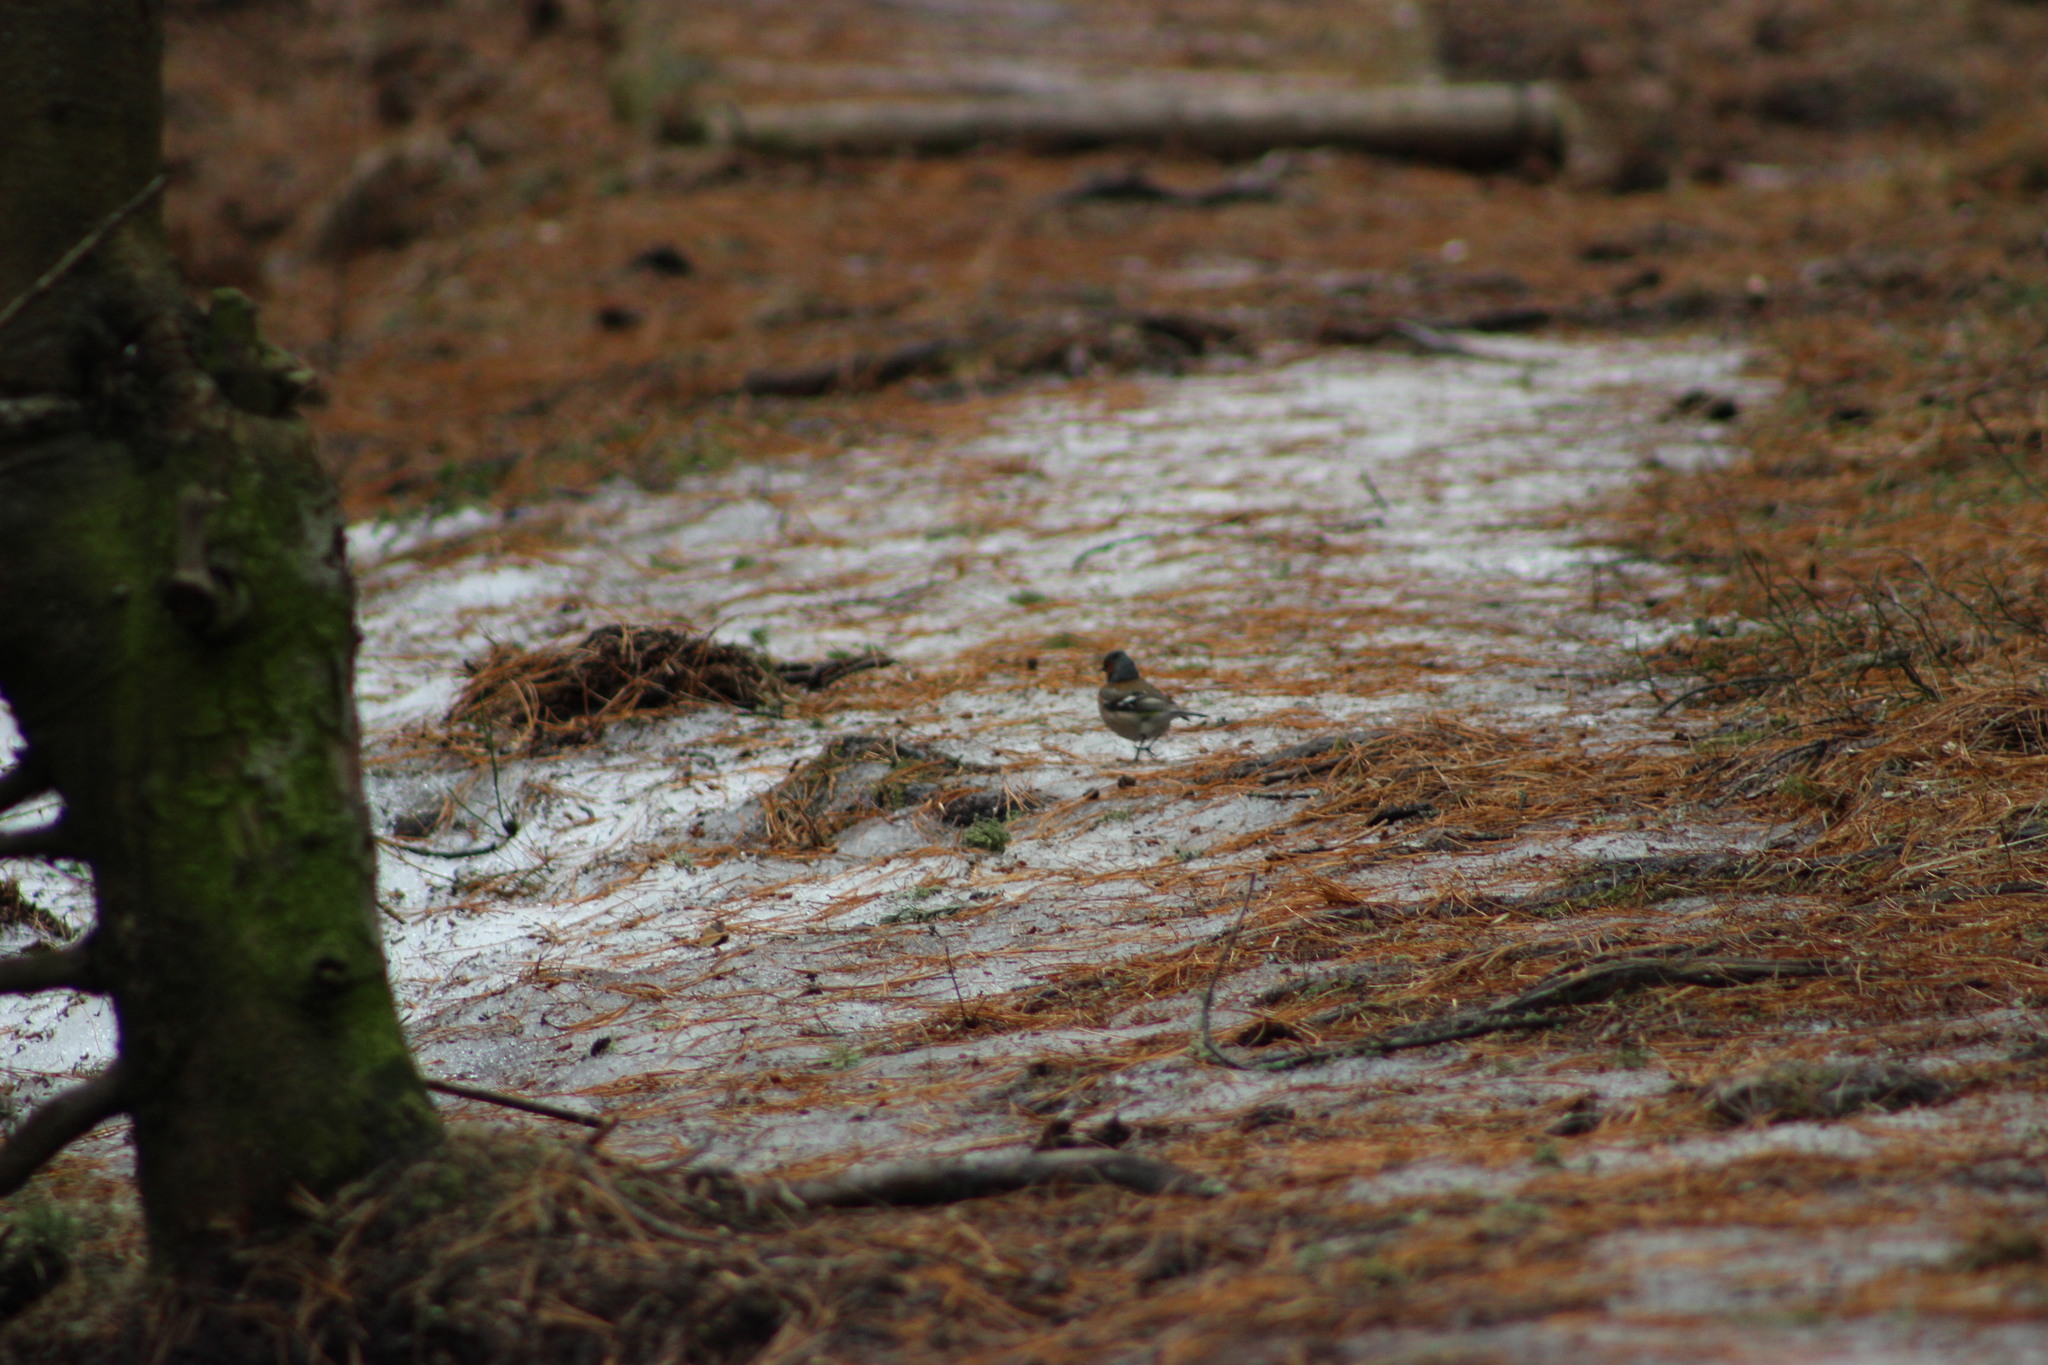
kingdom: Animalia
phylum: Chordata
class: Aves
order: Passeriformes
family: Fringillidae
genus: Fringilla
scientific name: Fringilla coelebs
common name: Common chaffinch
